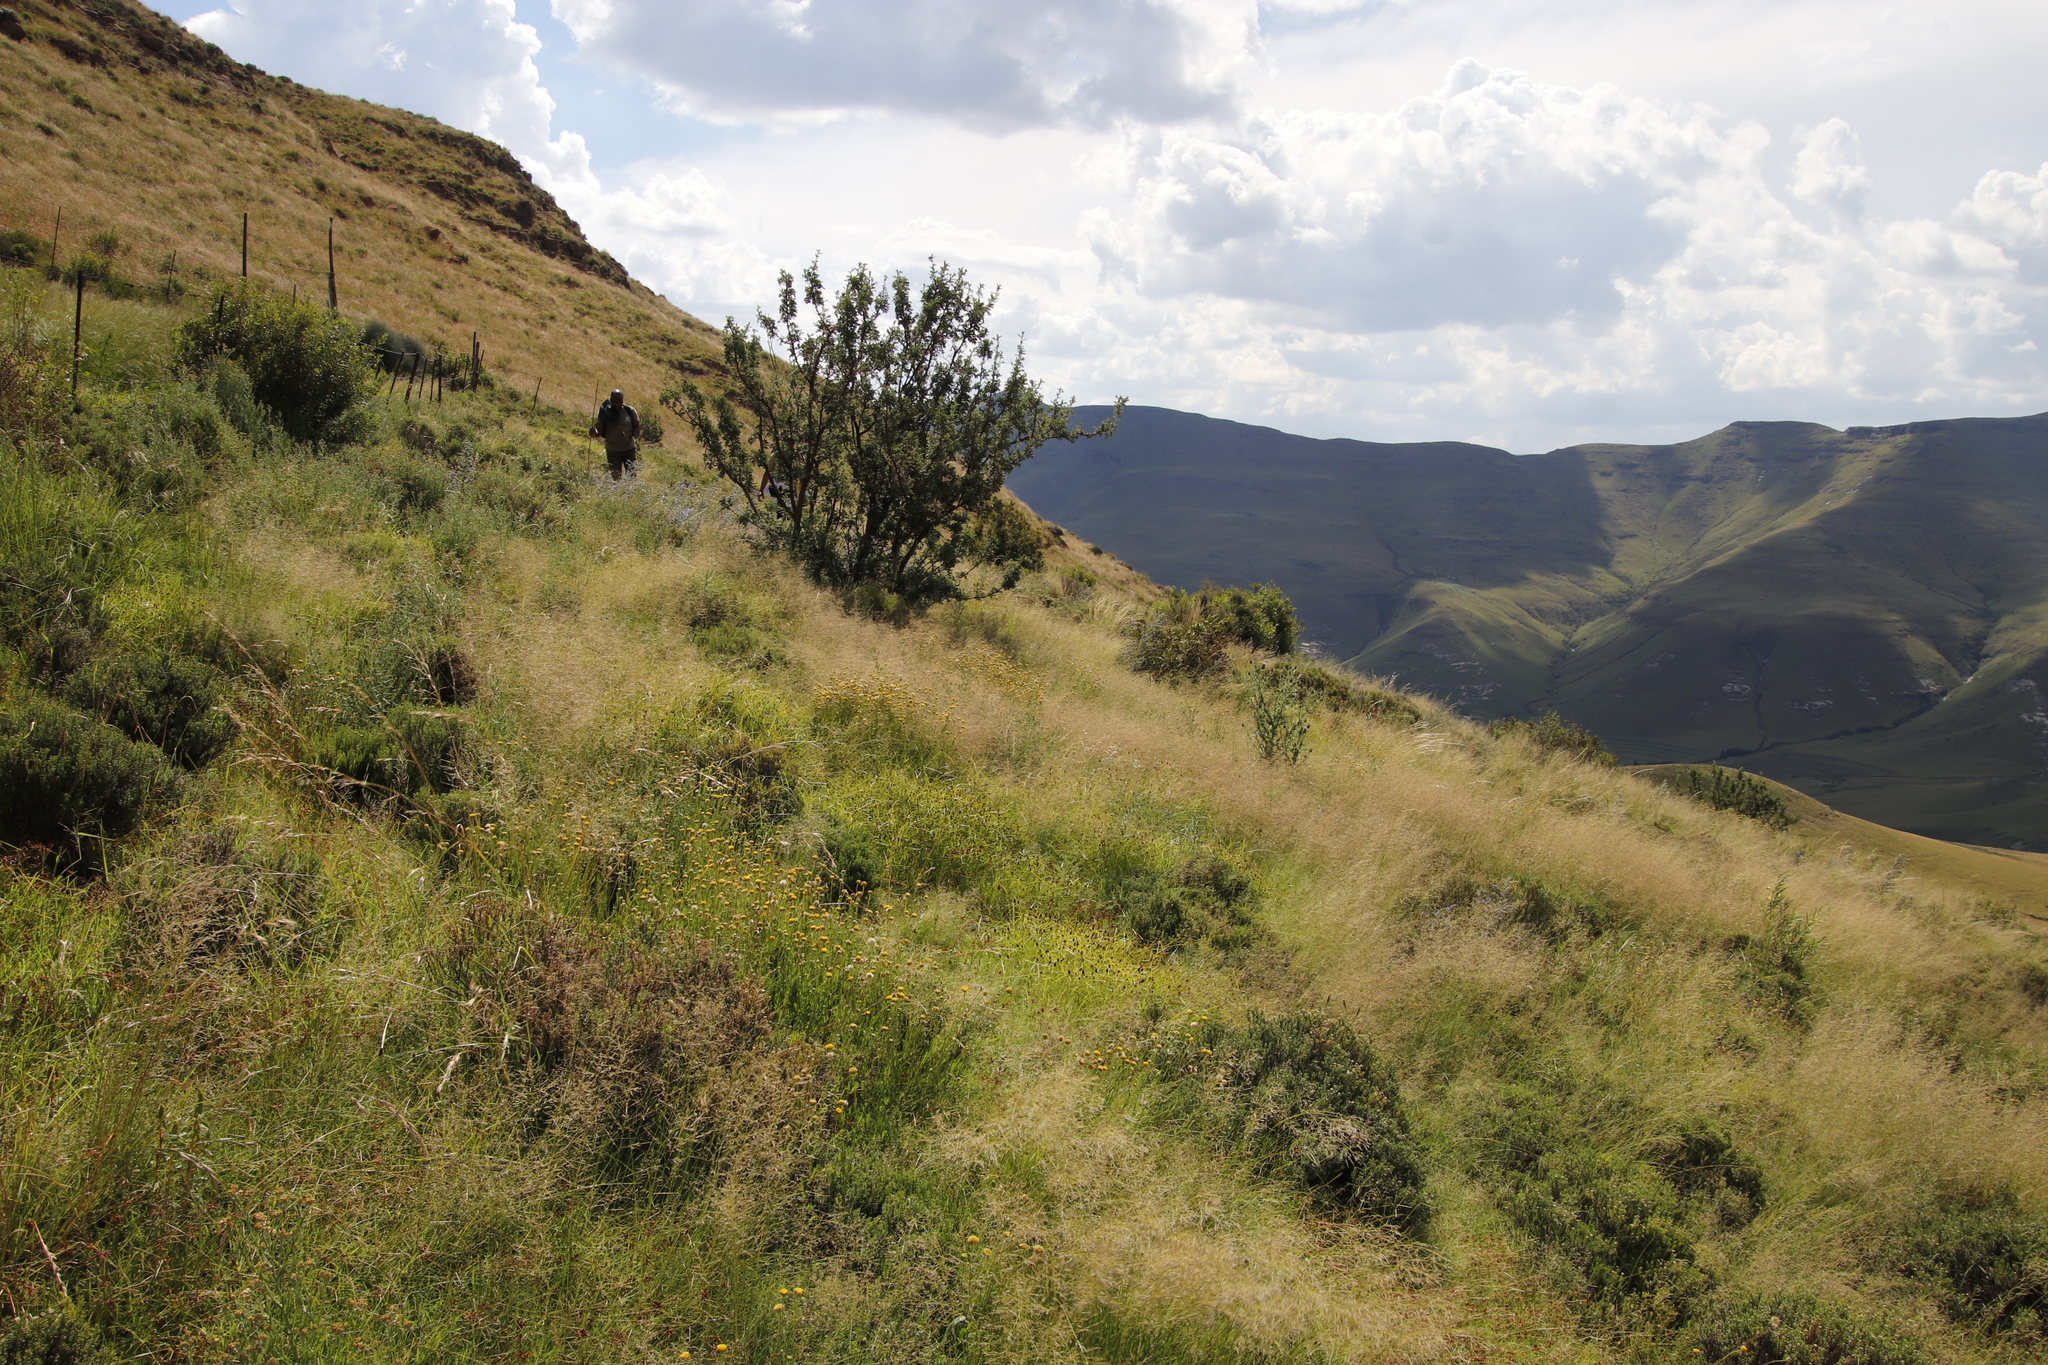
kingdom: Plantae
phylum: Tracheophyta
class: Magnoliopsida
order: Rosales
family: Rosaceae
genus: Leucosidea
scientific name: Leucosidea sericea
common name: Oldwood
